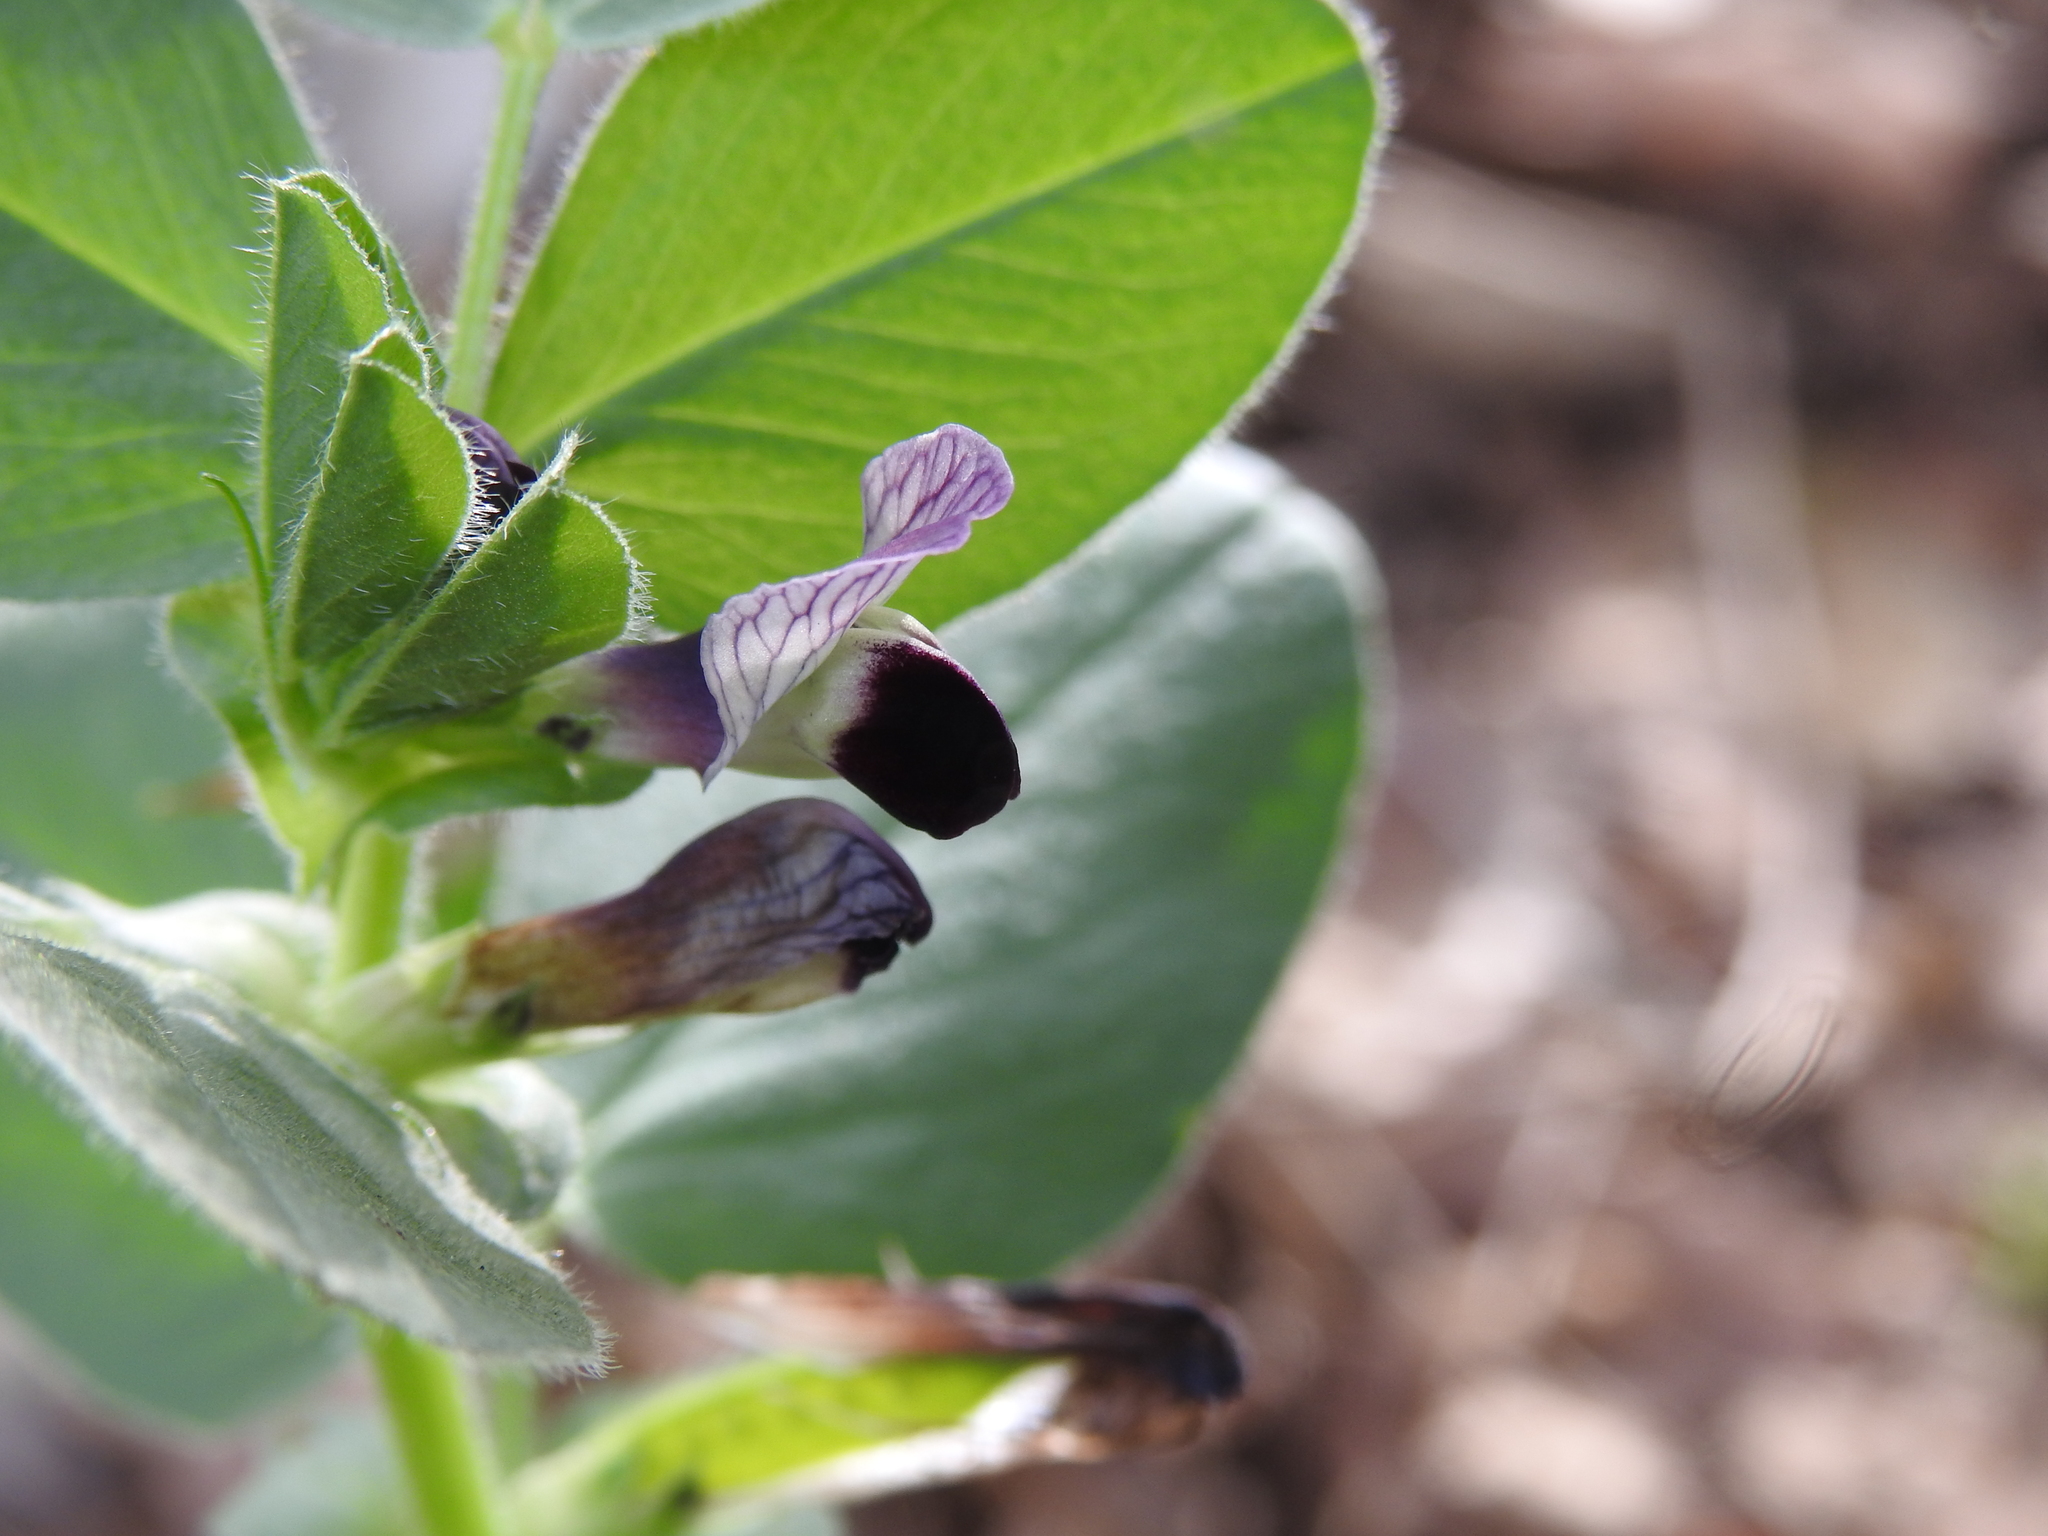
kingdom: Plantae
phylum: Tracheophyta
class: Magnoliopsida
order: Fabales
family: Fabaceae
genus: Vicia
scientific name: Vicia johannis
